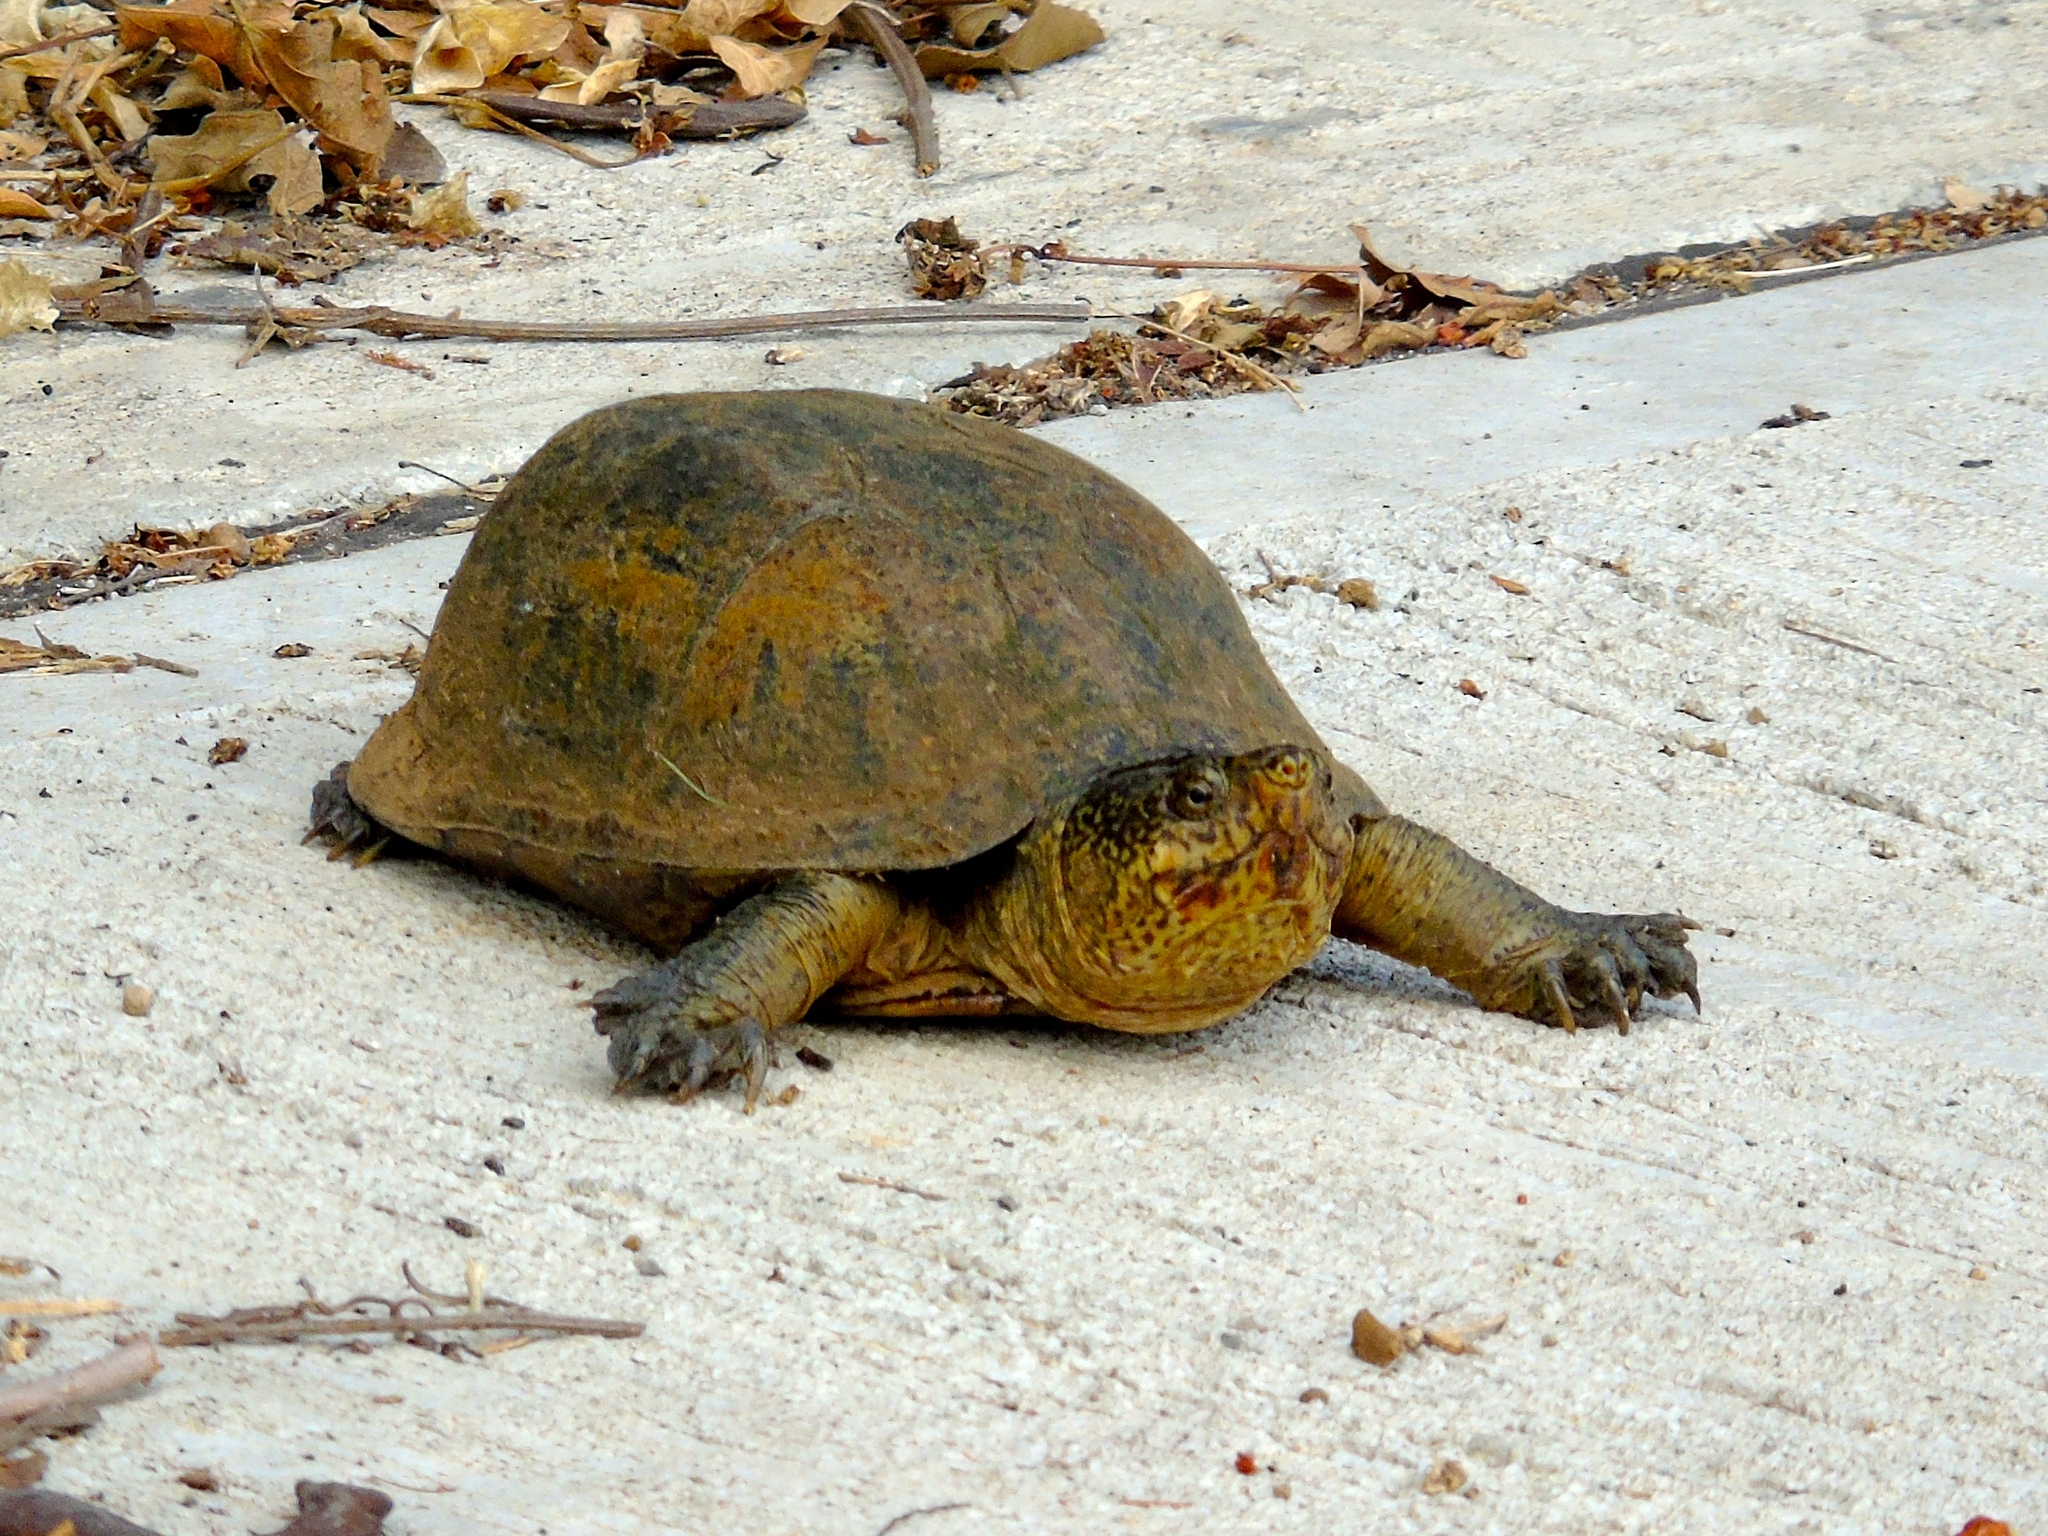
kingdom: Animalia
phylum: Chordata
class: Testudines
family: Kinosternidae
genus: Kinosternon
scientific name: Kinosternon integrum
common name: Mexican mud turtle
